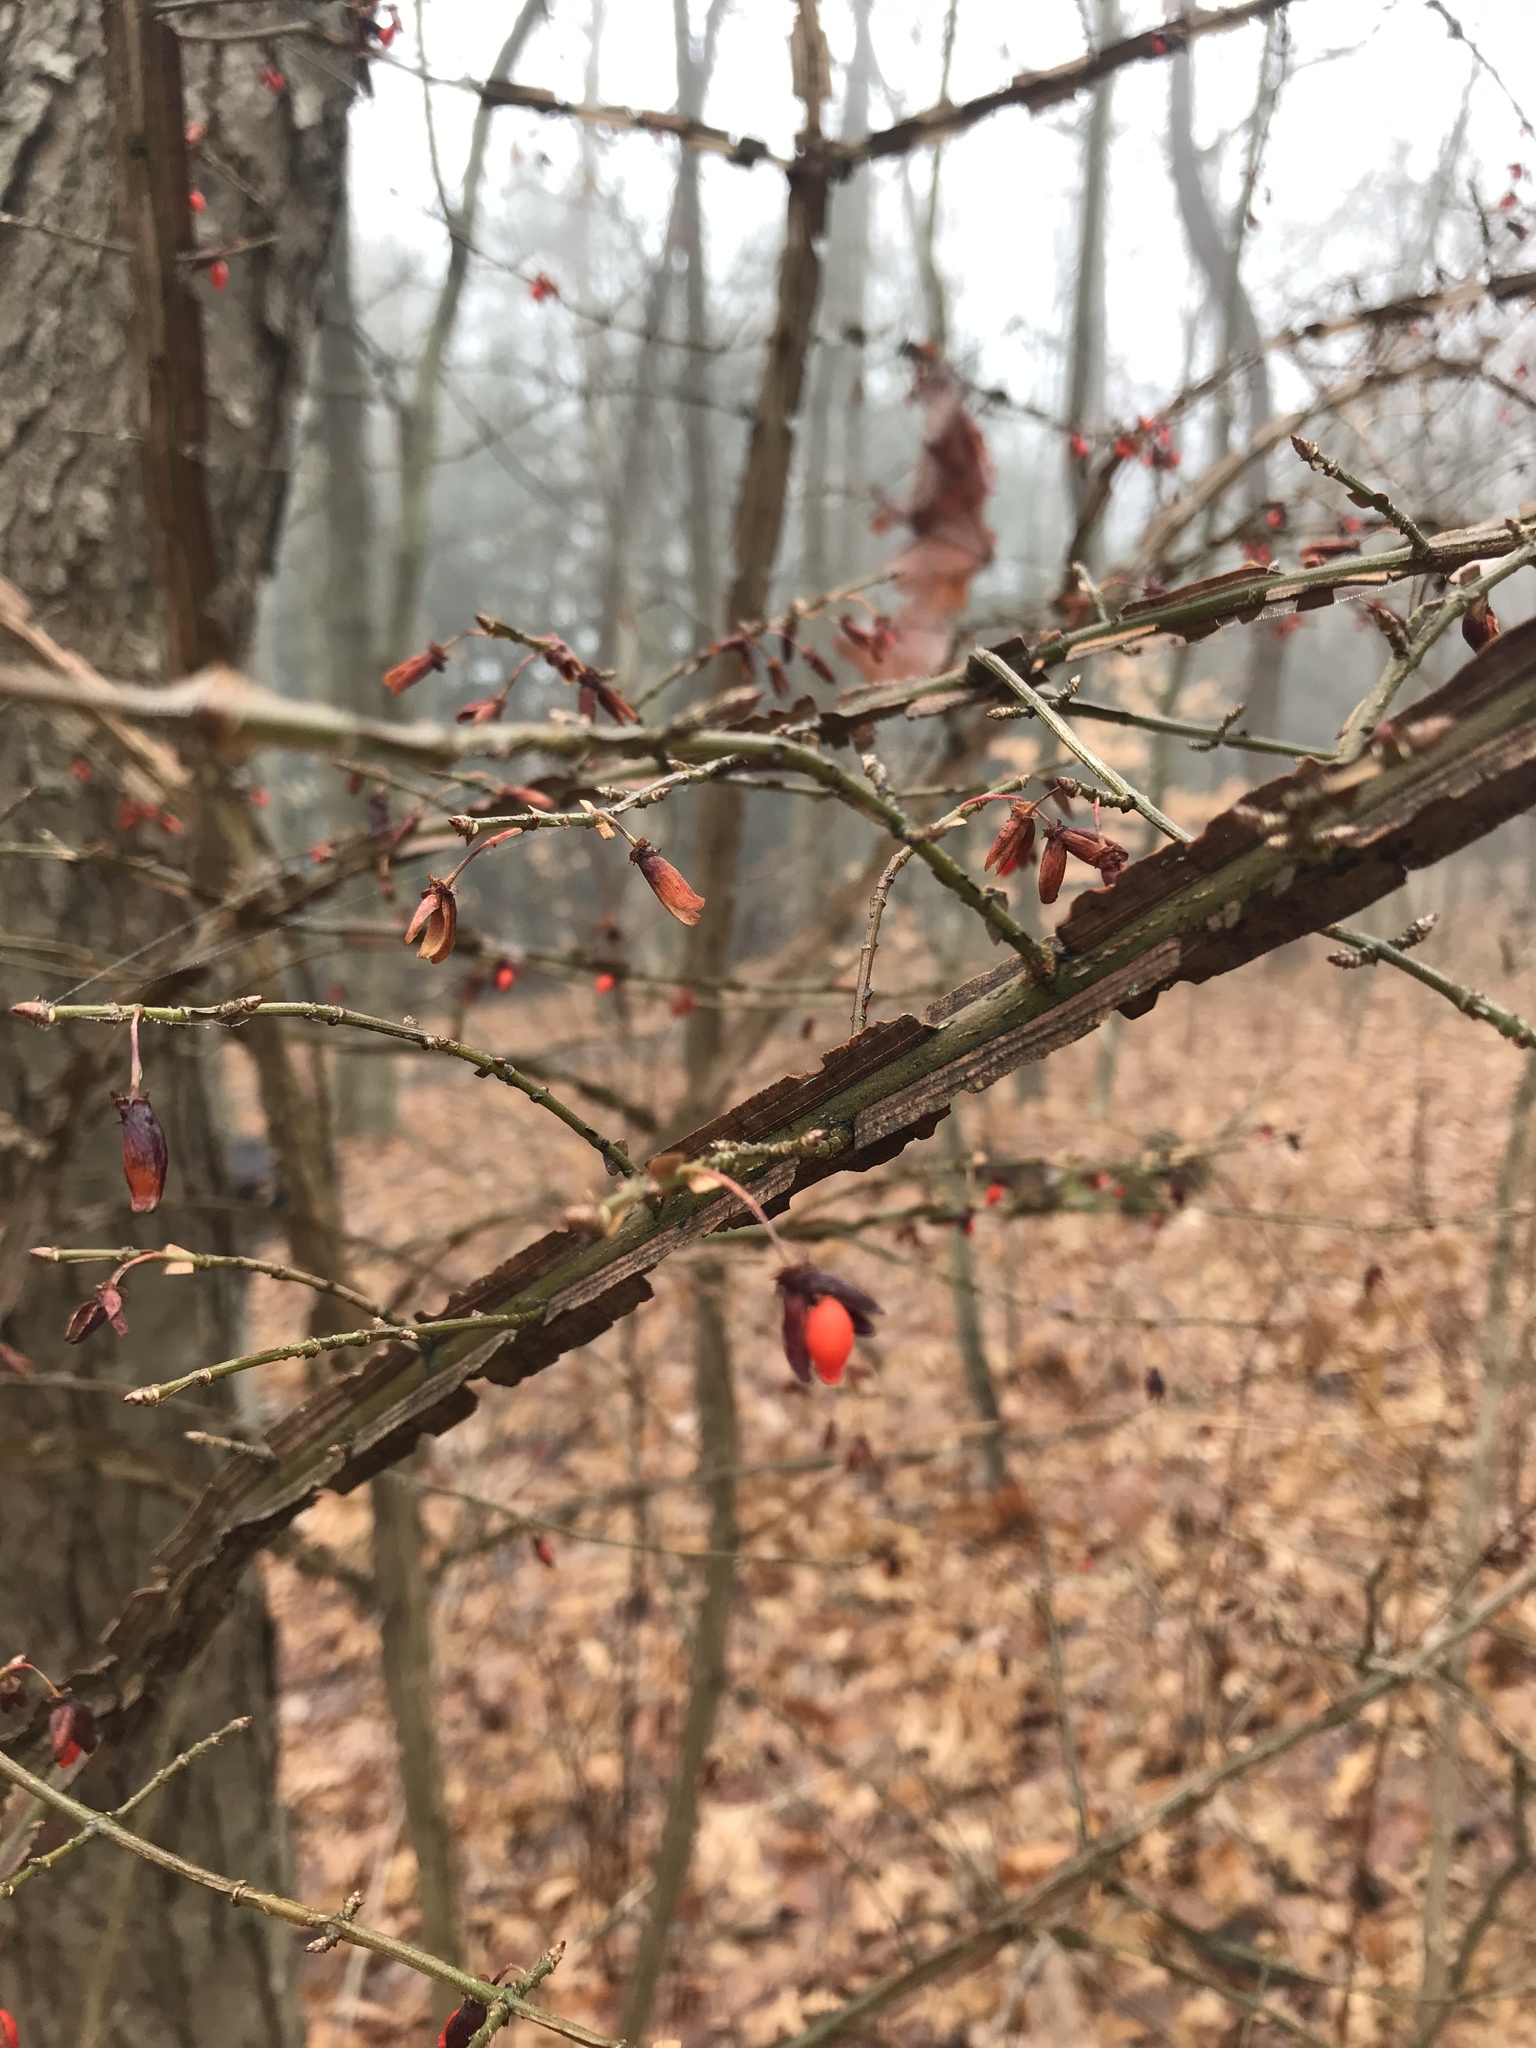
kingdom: Plantae
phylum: Tracheophyta
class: Magnoliopsida
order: Celastrales
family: Celastraceae
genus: Euonymus
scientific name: Euonymus alatus
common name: Winged euonymus
